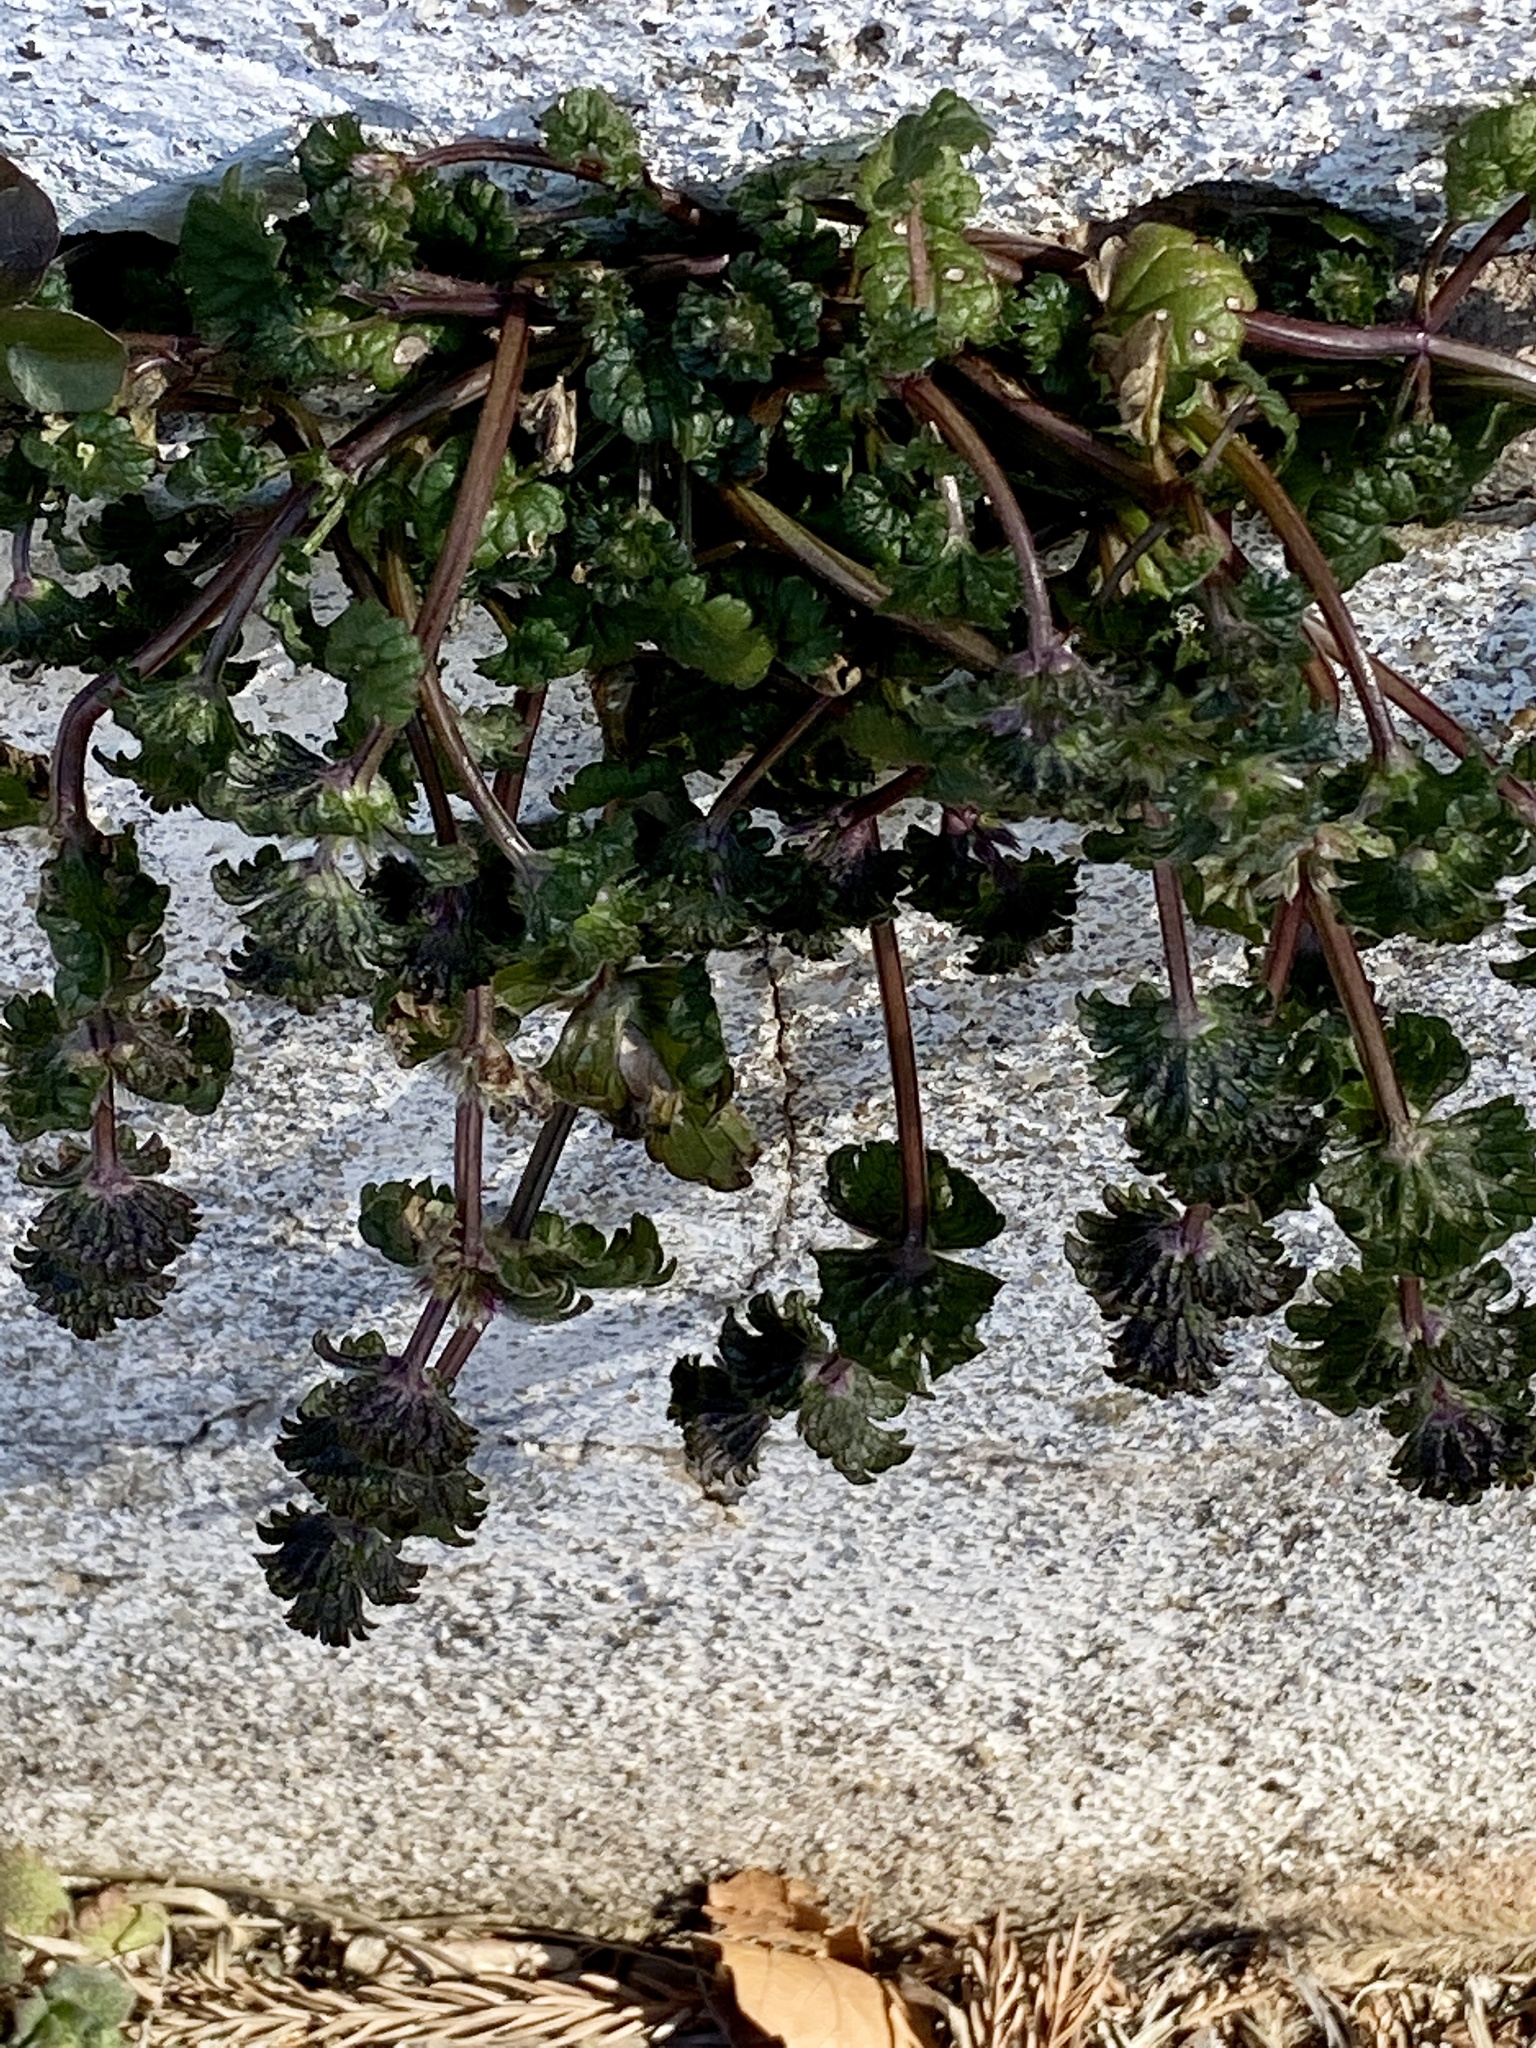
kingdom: Plantae
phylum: Tracheophyta
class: Magnoliopsida
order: Lamiales
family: Lamiaceae
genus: Lamium
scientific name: Lamium amplexicaule
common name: Henbit dead-nettle
